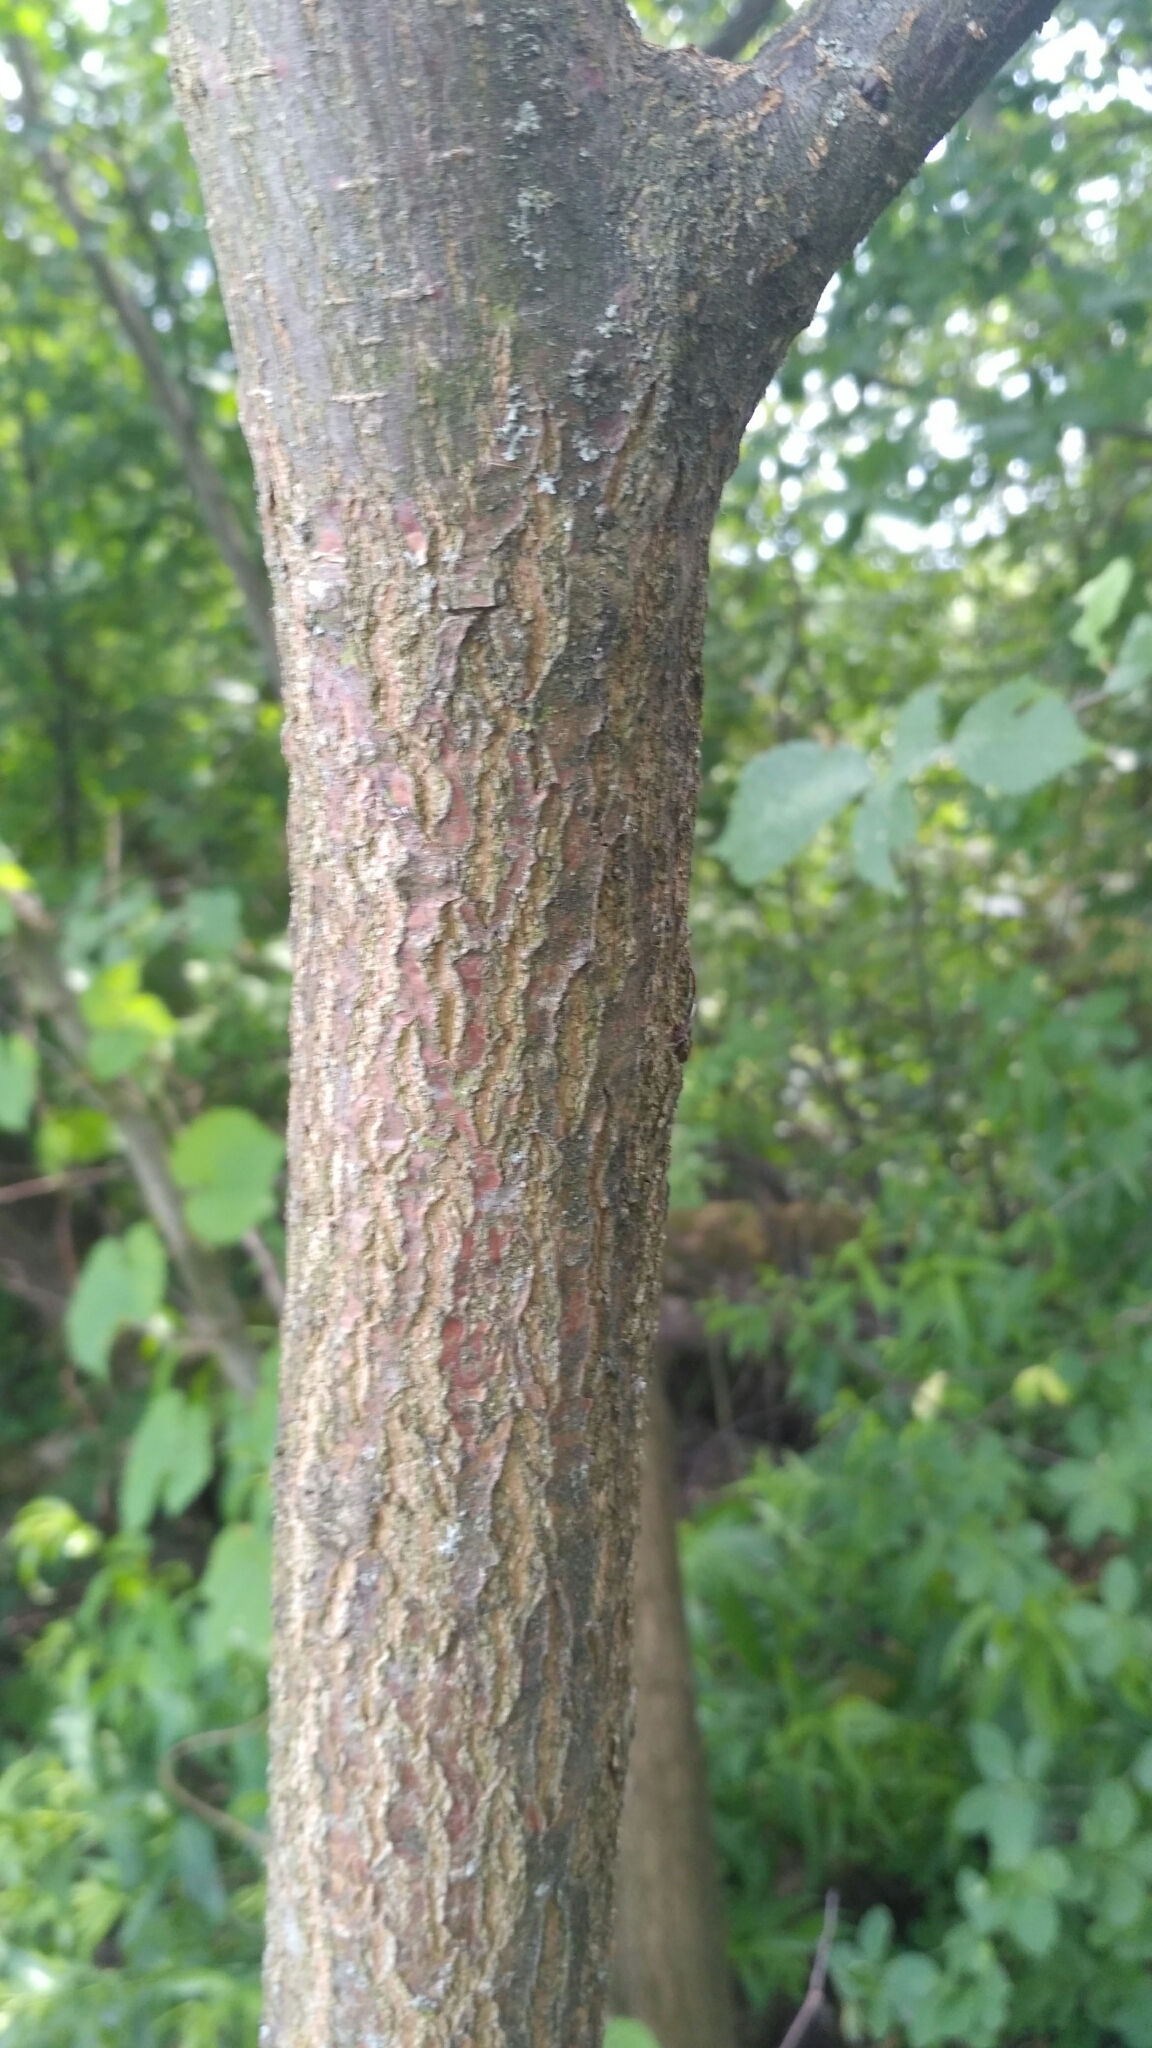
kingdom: Plantae
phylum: Tracheophyta
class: Magnoliopsida
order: Rosales
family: Ulmaceae
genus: Ulmus
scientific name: Ulmus glabra
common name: Wych elm
